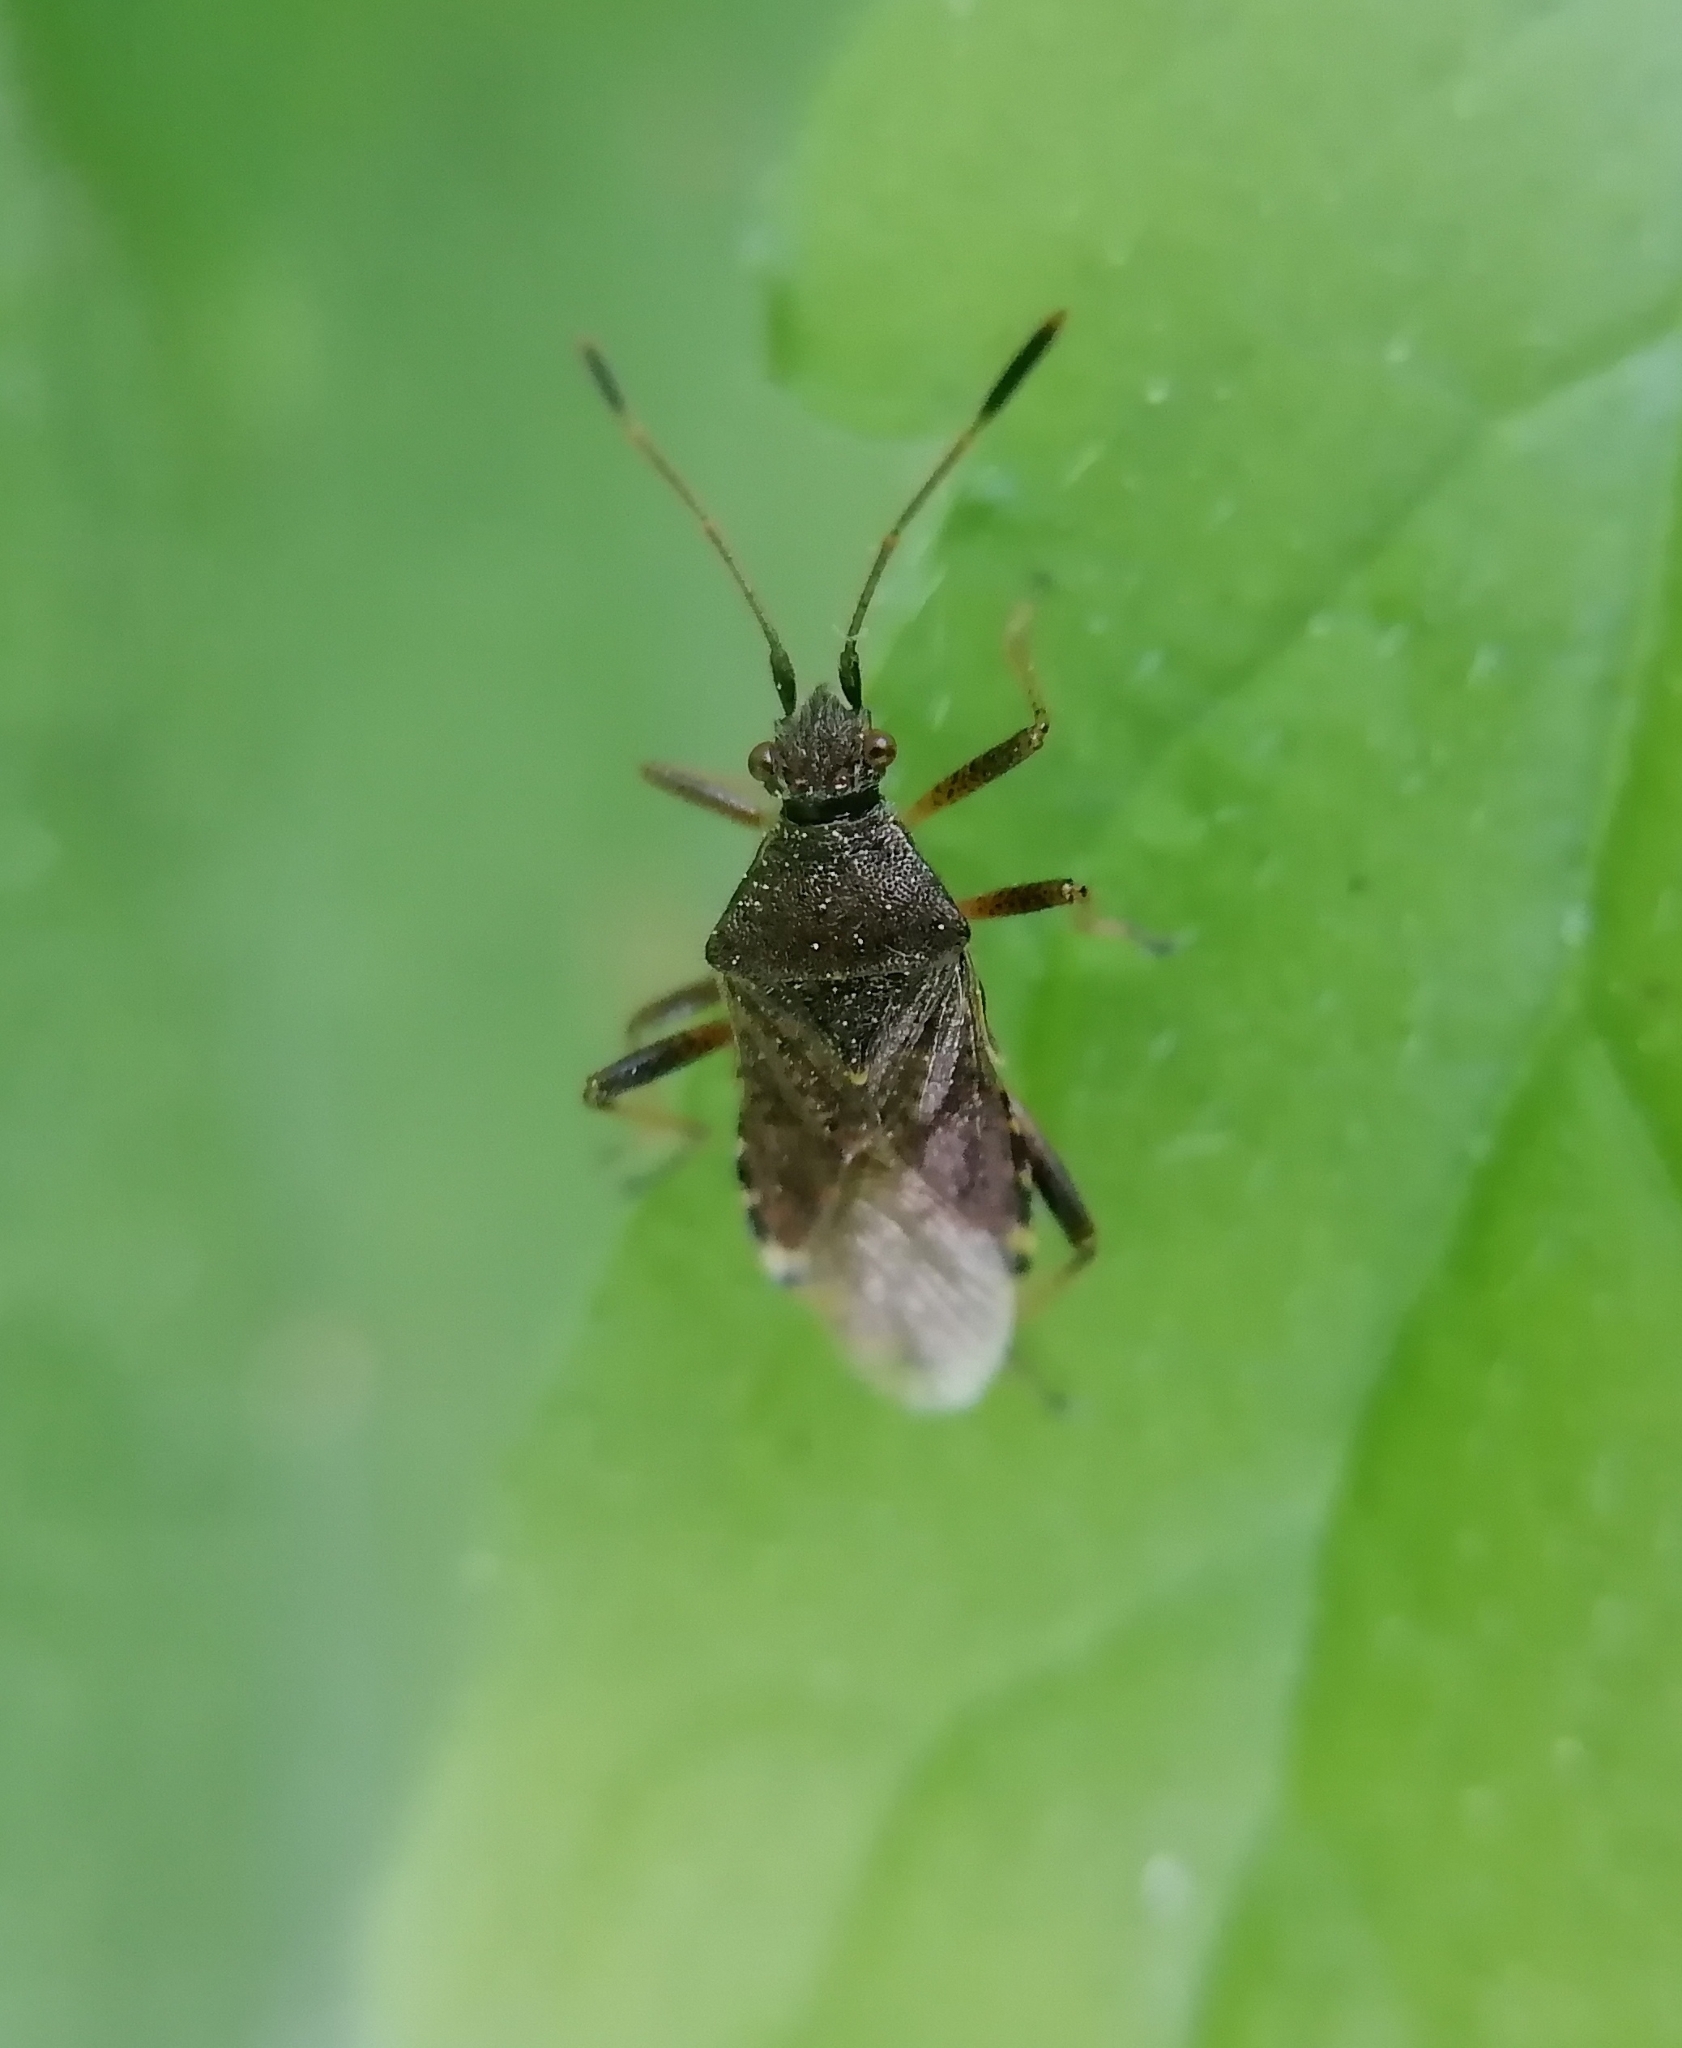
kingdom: Animalia
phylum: Arthropoda
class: Insecta
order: Hemiptera
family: Rhopalidae
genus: Rhopalus
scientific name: Rhopalus latus
